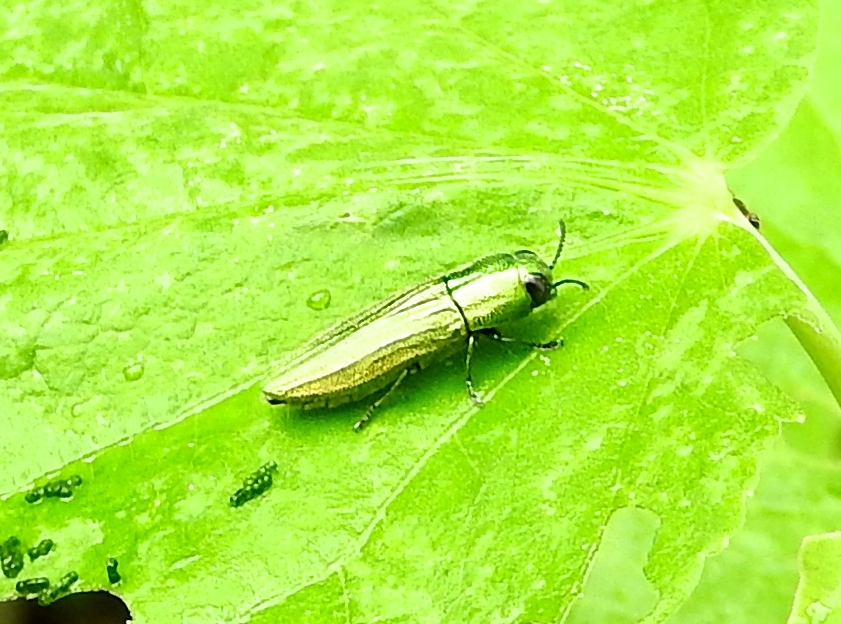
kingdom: Animalia
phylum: Arthropoda
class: Insecta
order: Coleoptera
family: Buprestidae
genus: Agaeocera
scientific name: Agaeocera
